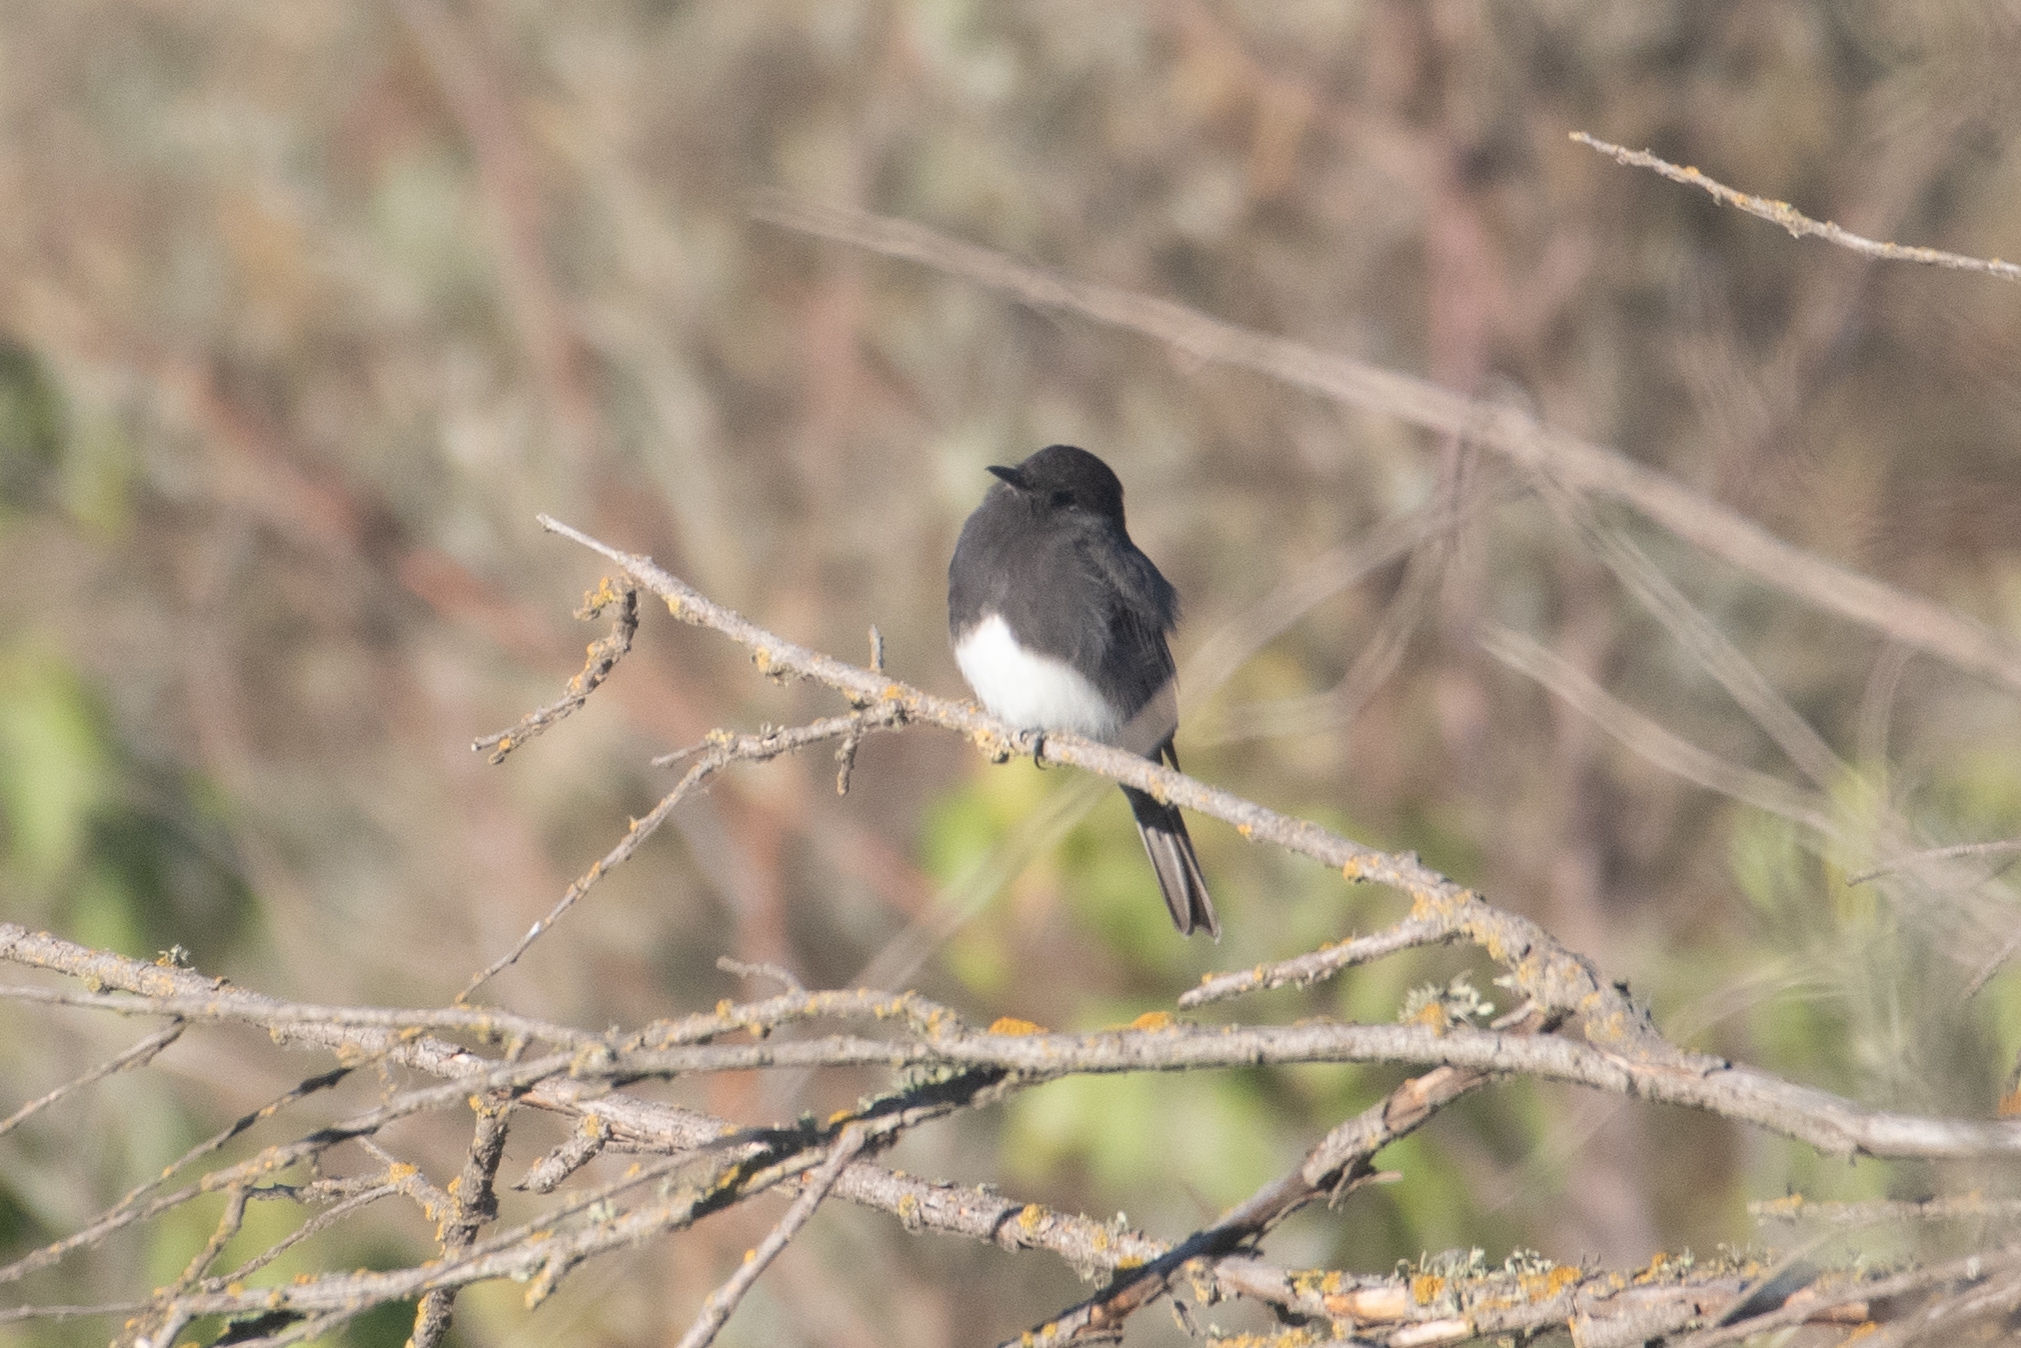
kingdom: Animalia
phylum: Chordata
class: Aves
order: Passeriformes
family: Tyrannidae
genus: Sayornis
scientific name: Sayornis nigricans
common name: Black phoebe
